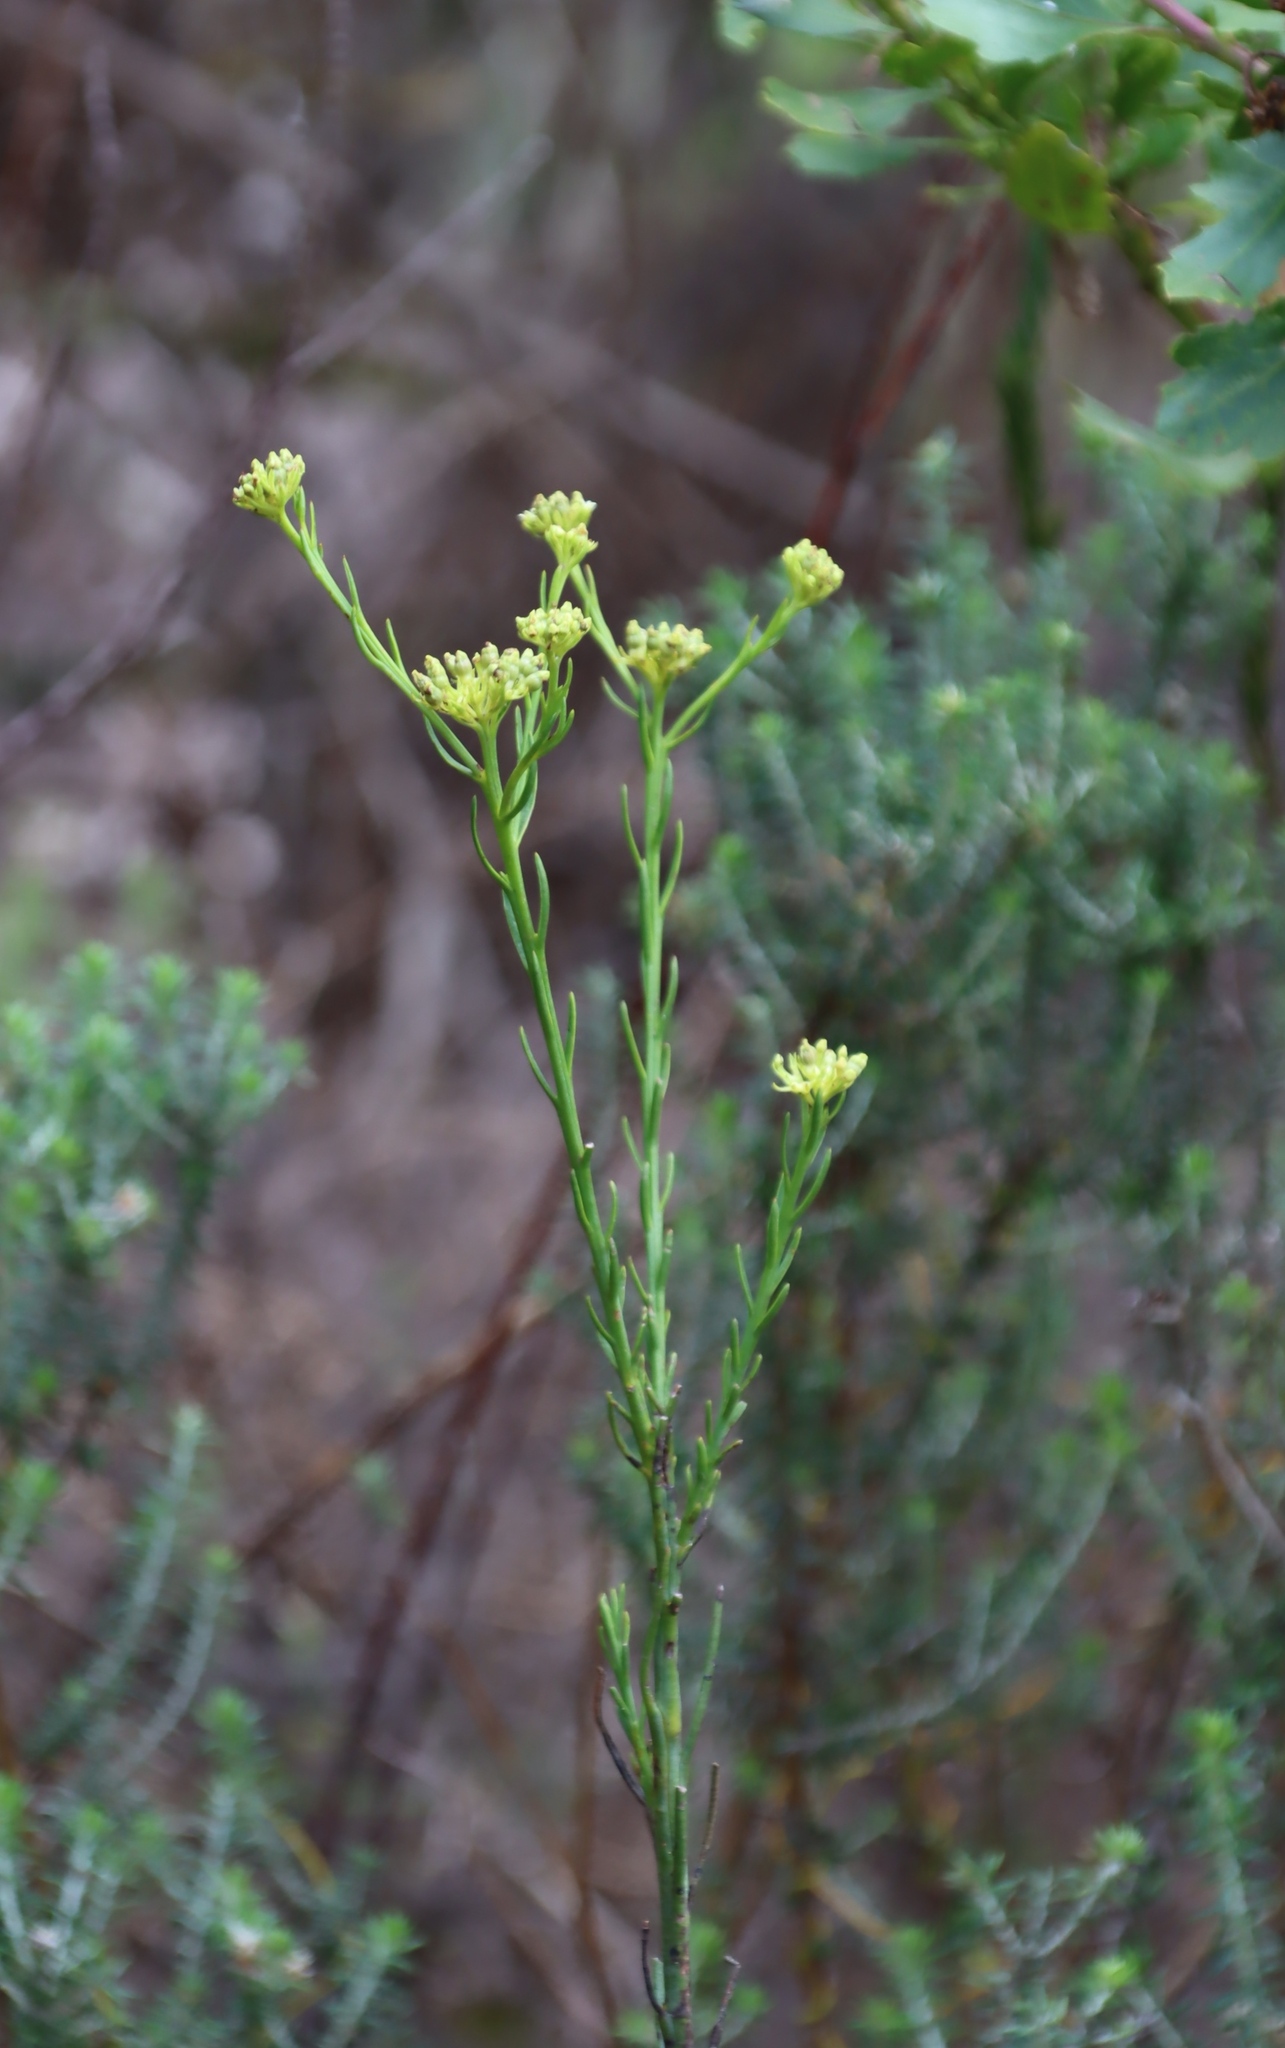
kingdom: Plantae
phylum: Tracheophyta
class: Magnoliopsida
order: Santalales
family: Thesiaceae
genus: Thesium
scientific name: Thesium strictum
